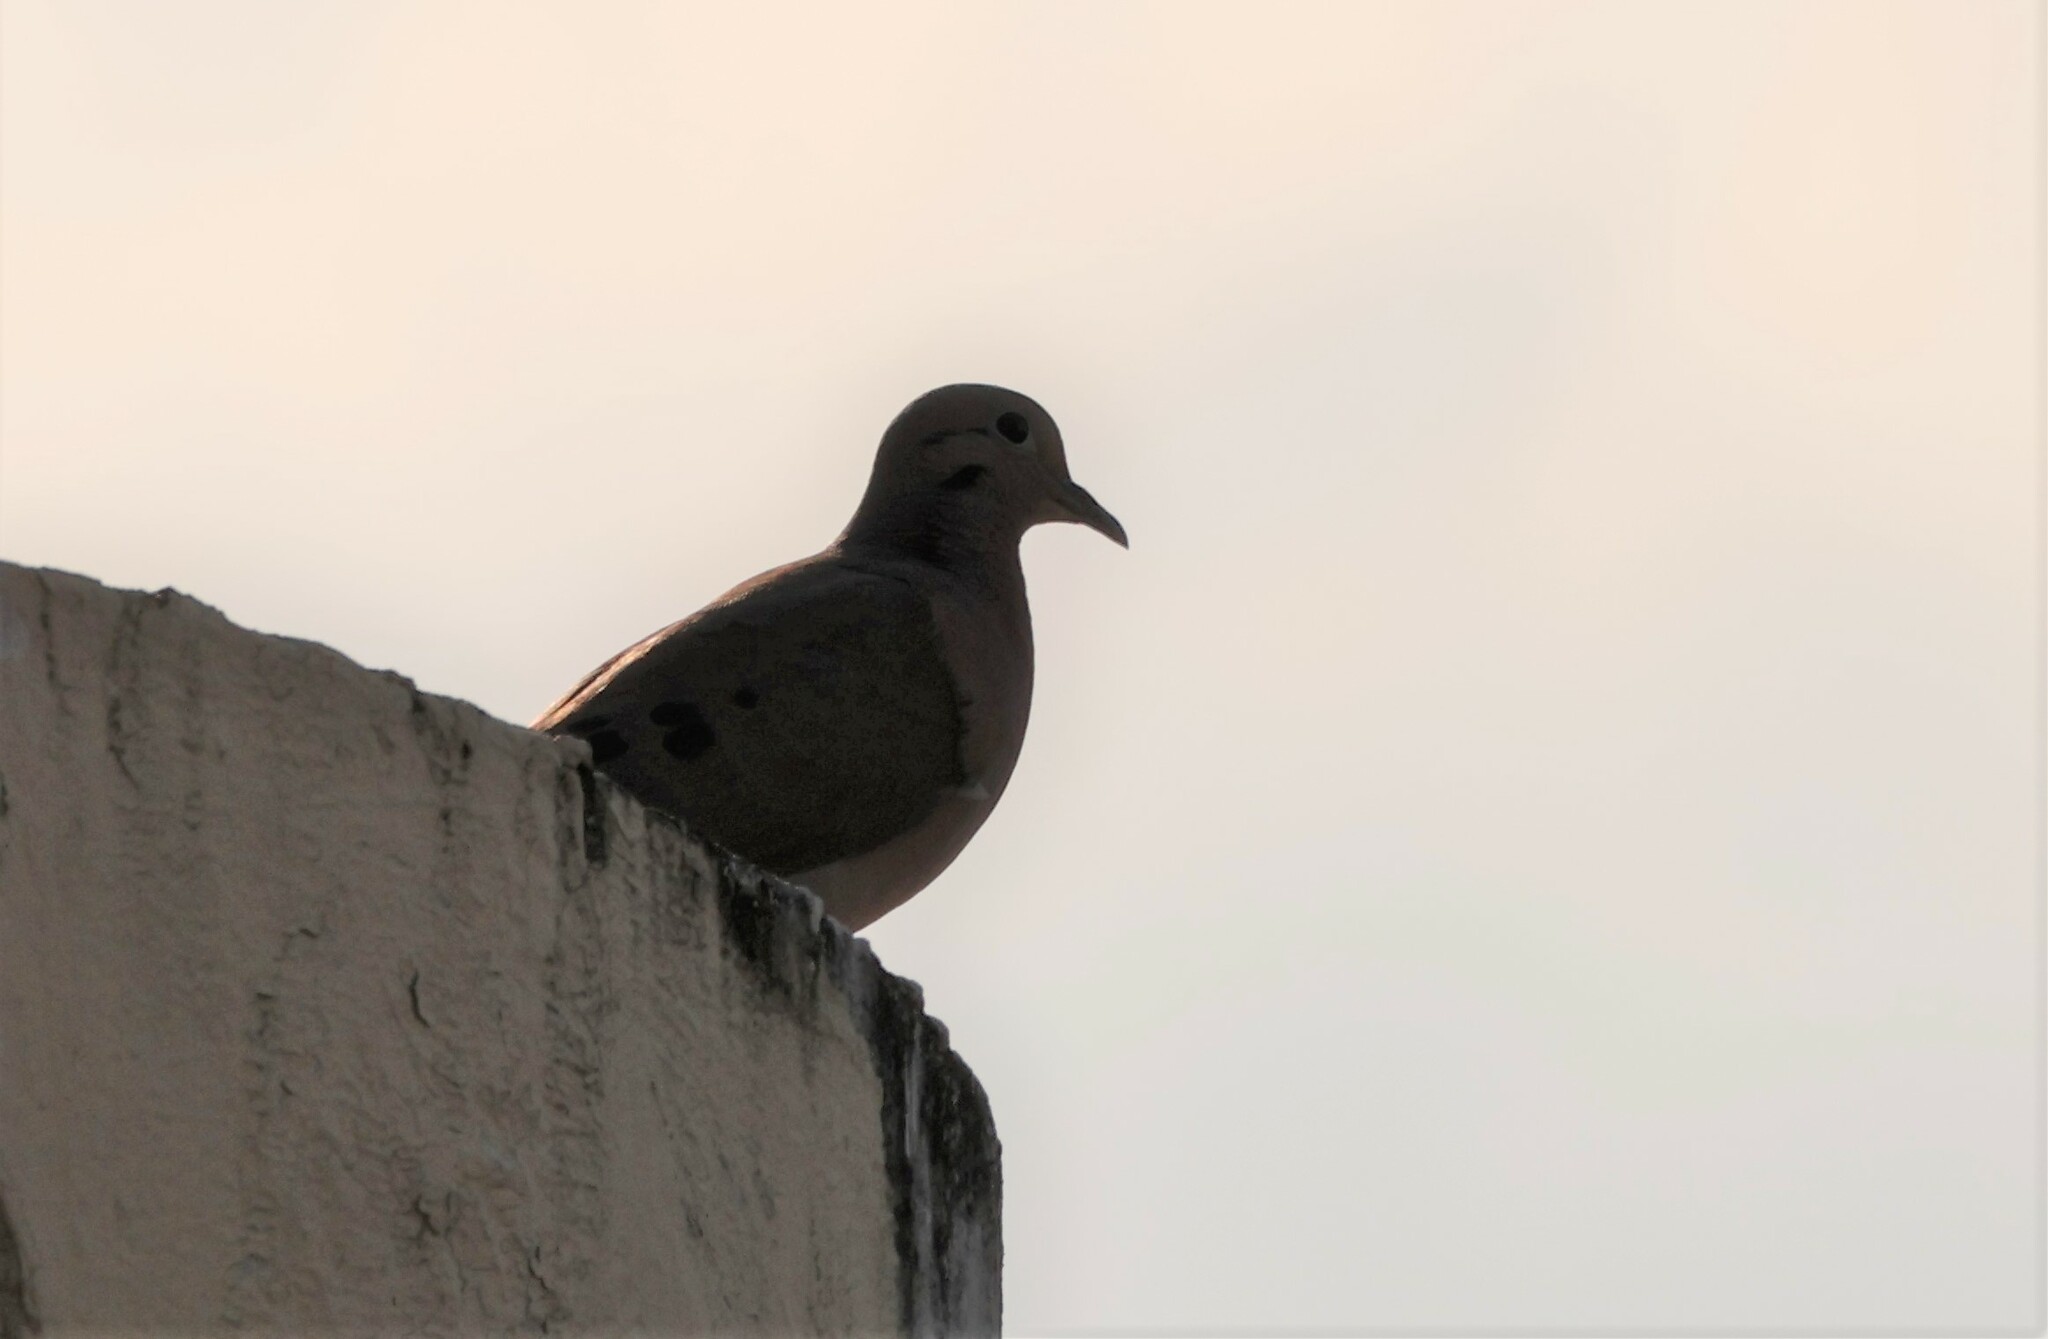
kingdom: Animalia
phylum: Chordata
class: Aves
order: Columbiformes
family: Columbidae
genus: Zenaida
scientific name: Zenaida auriculata
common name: Eared dove
